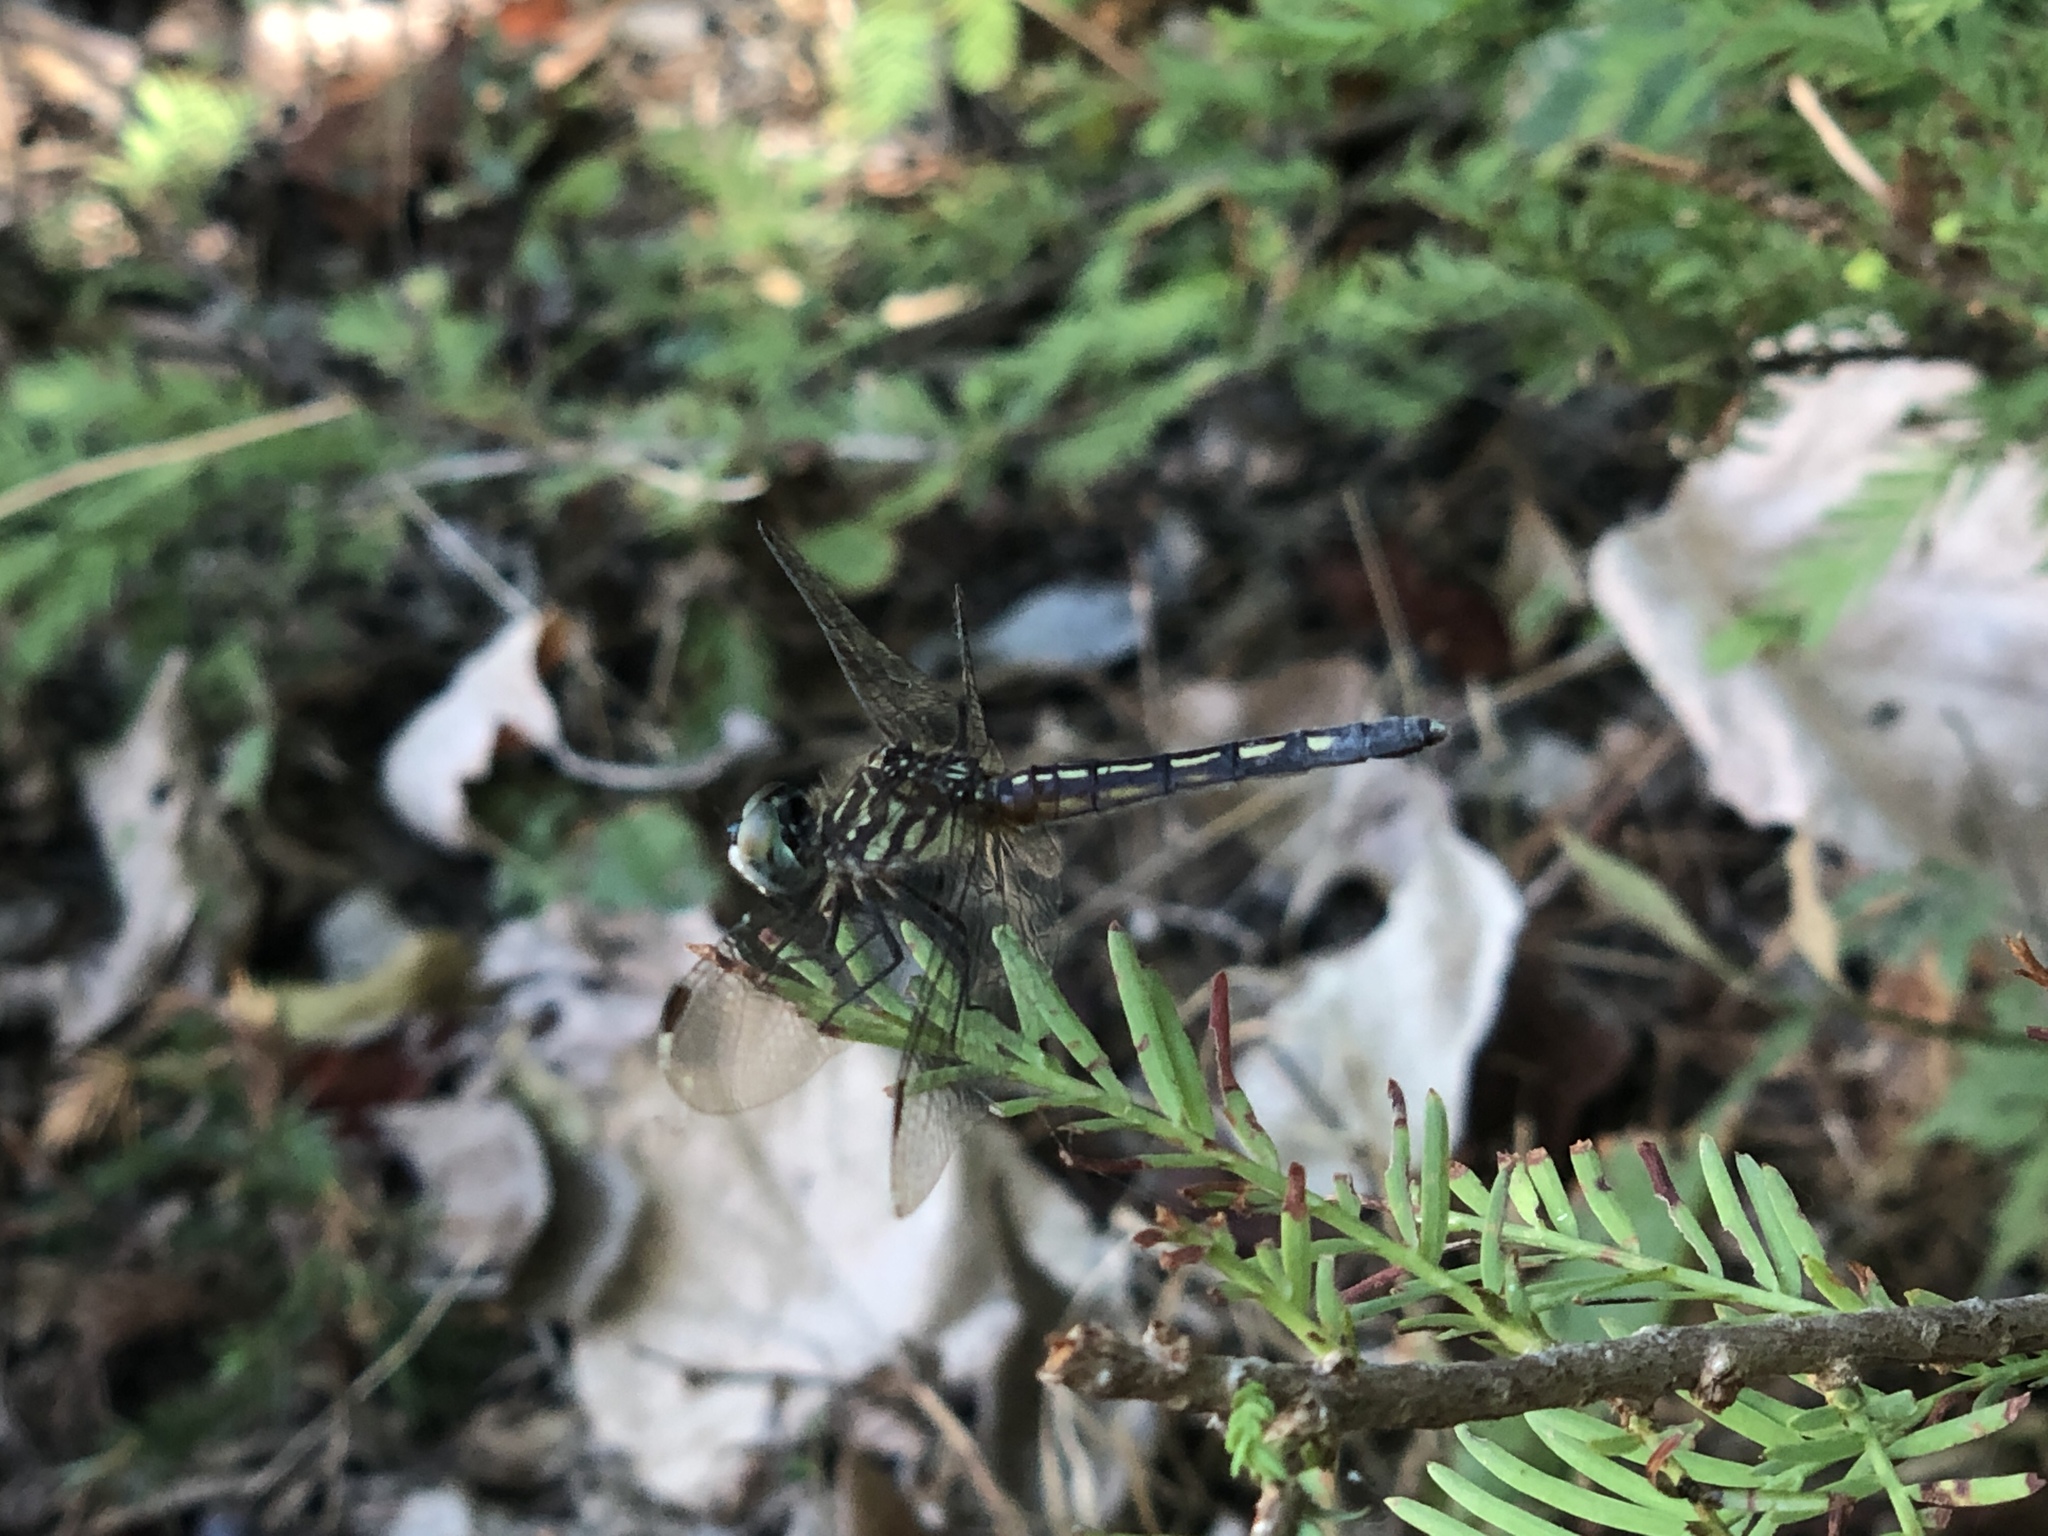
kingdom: Animalia
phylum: Arthropoda
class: Insecta
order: Odonata
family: Libellulidae
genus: Pachydiplax
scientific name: Pachydiplax longipennis
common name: Blue dasher
